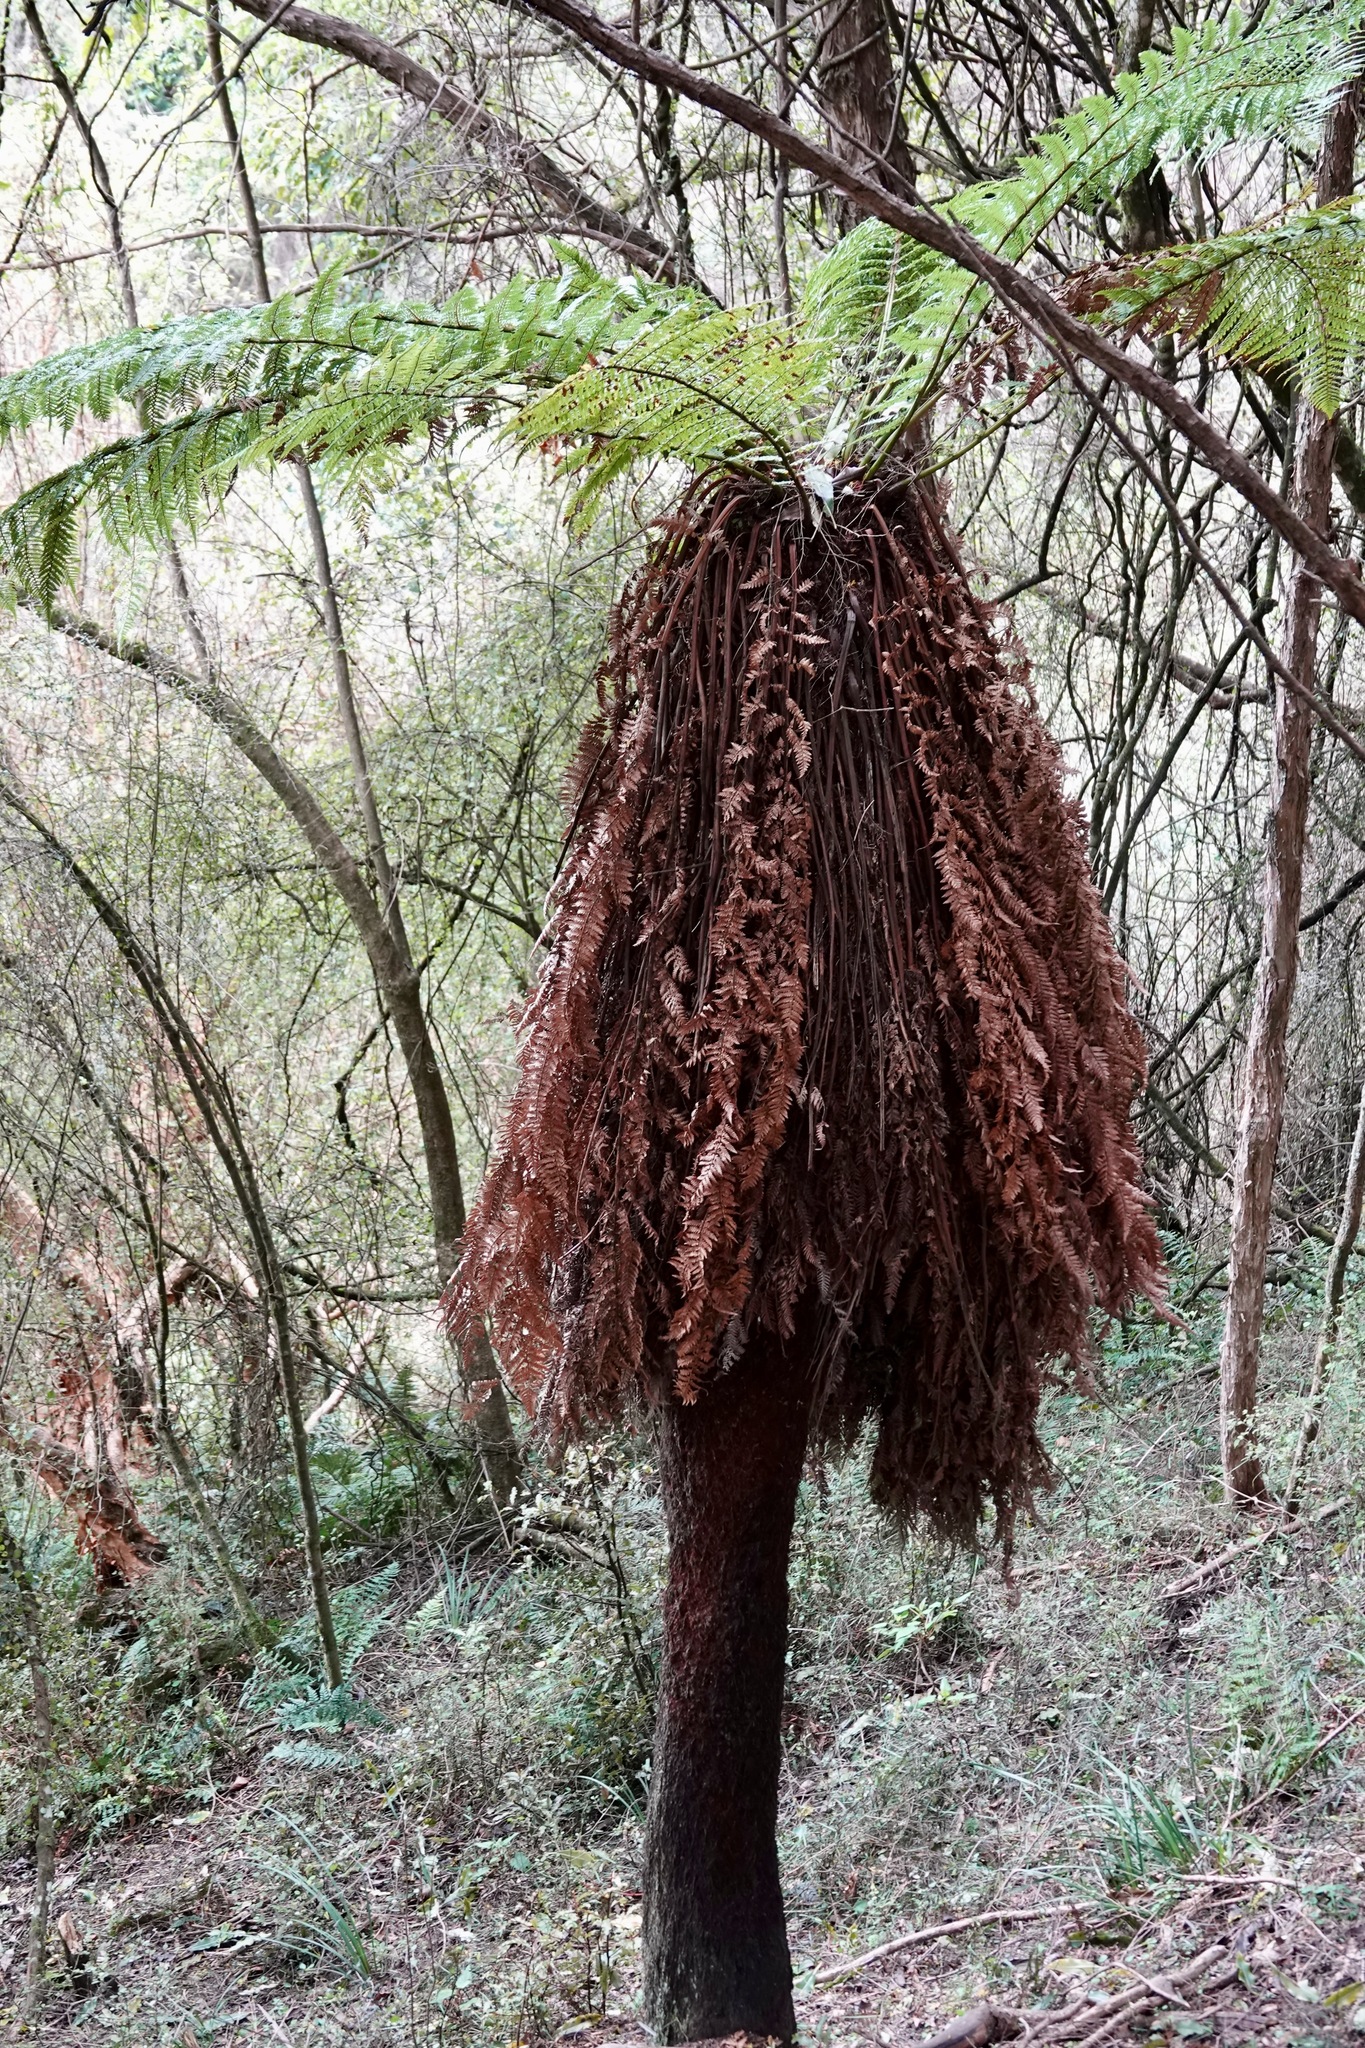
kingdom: Plantae
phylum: Tracheophyta
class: Polypodiopsida
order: Cyatheales
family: Dicksoniaceae
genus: Dicksonia
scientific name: Dicksonia fibrosa
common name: Golden tree fern
